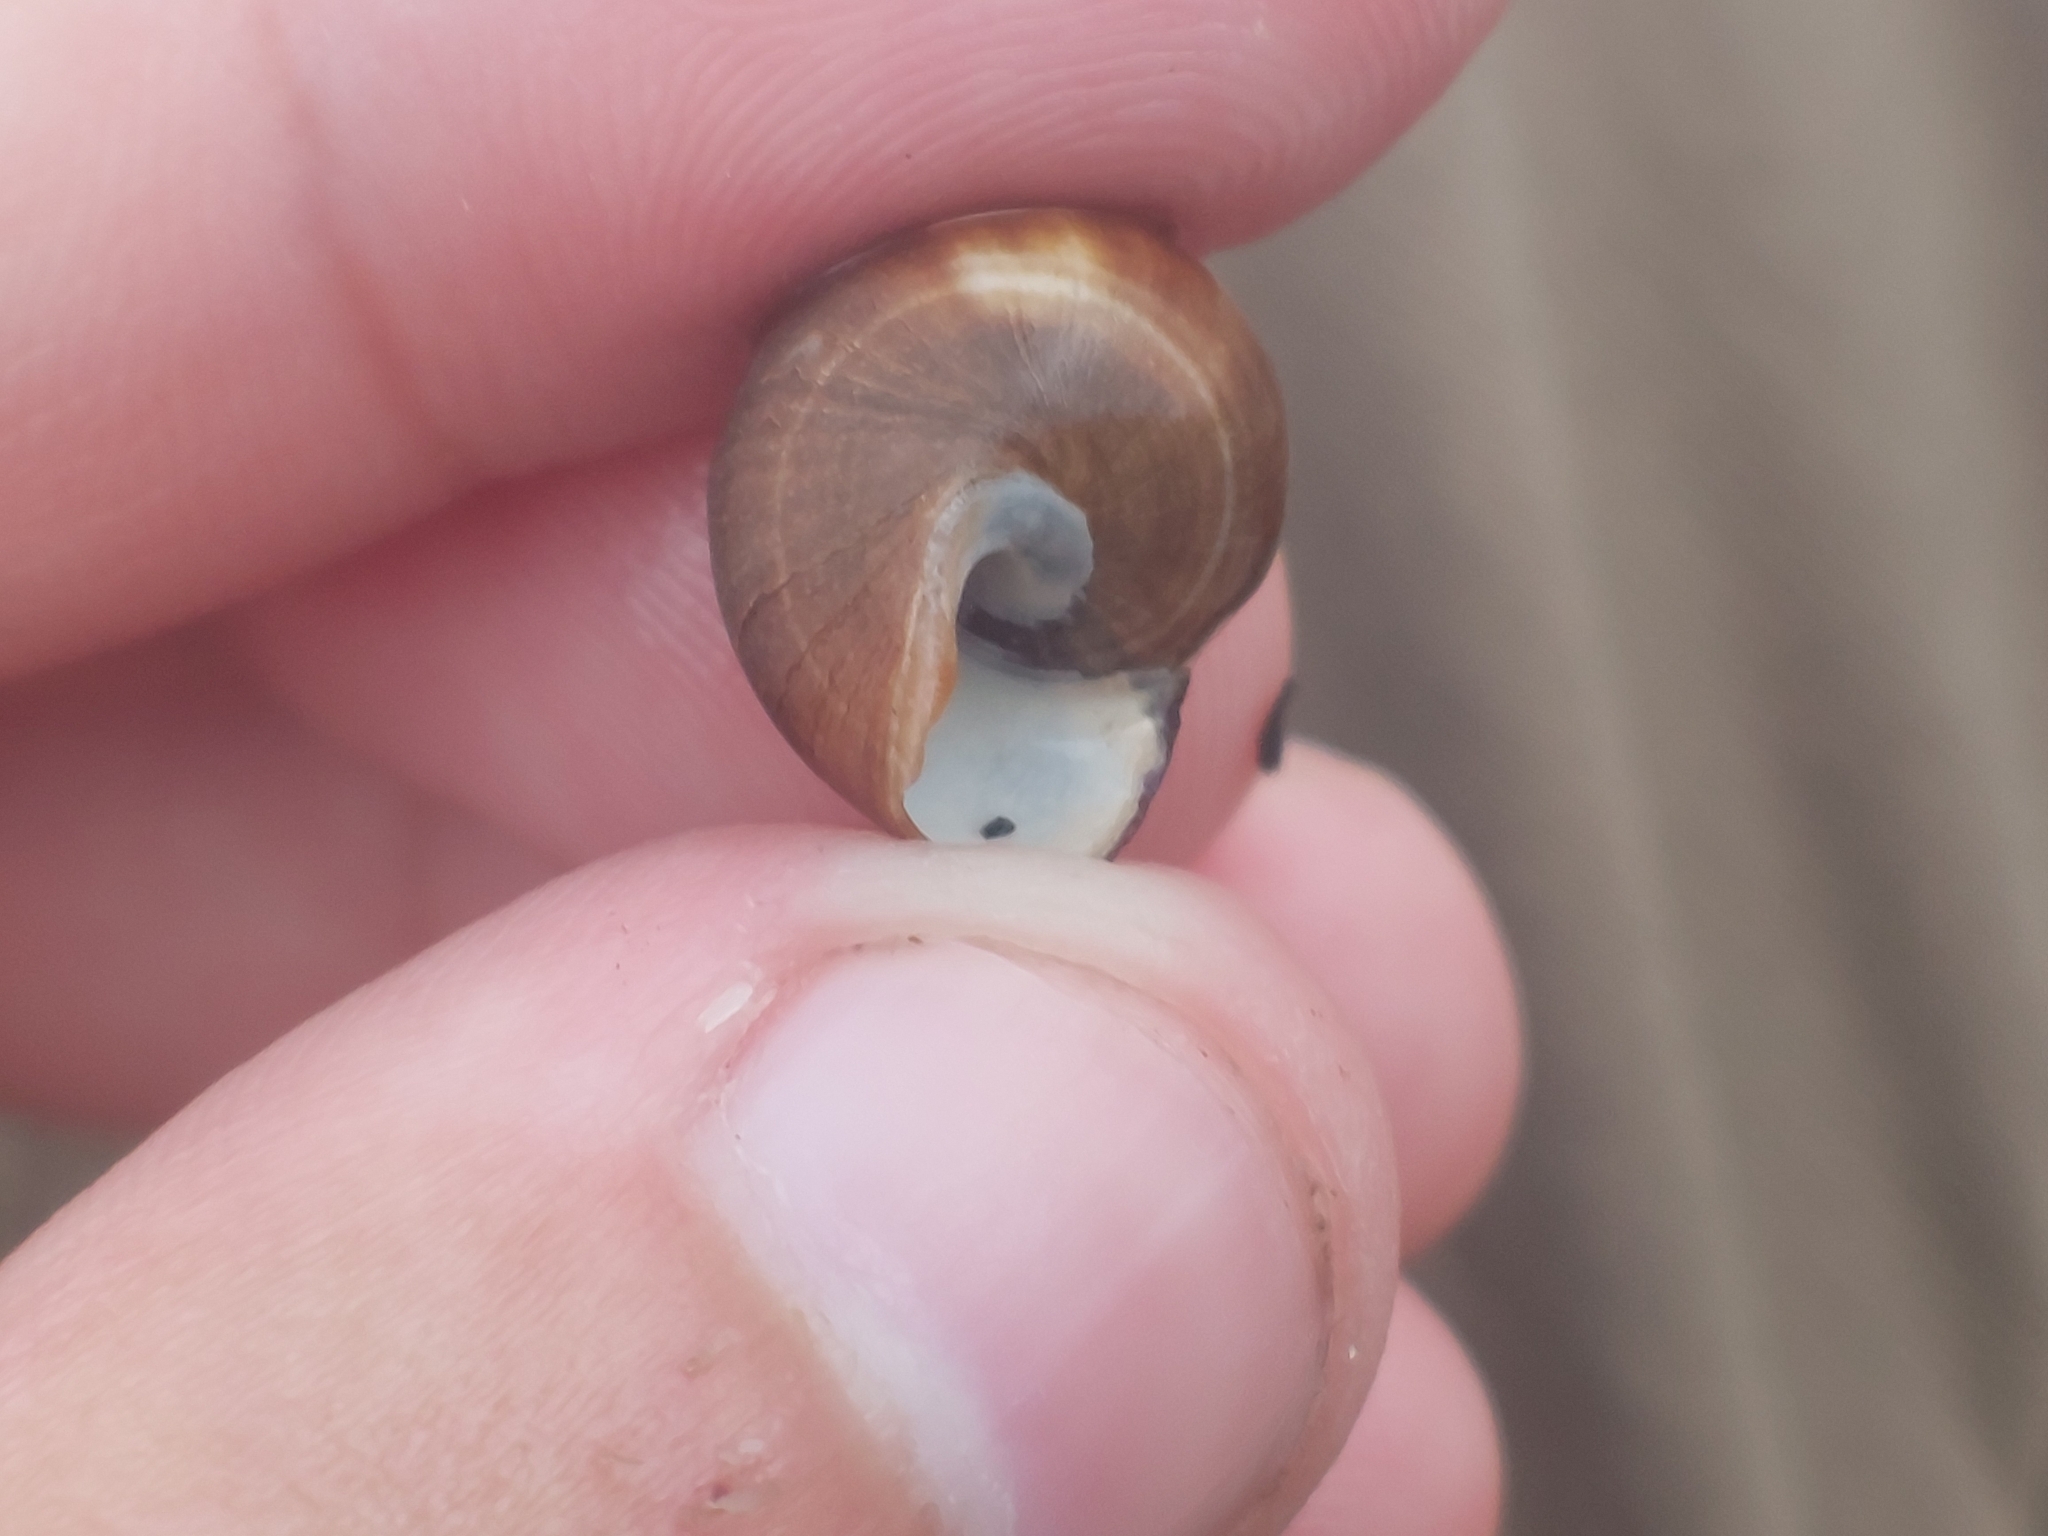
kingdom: Animalia
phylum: Mollusca
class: Gastropoda
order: Littorinimorpha
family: Littorinidae
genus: Littorina
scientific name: Littorina littorea
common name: Common periwinkle
